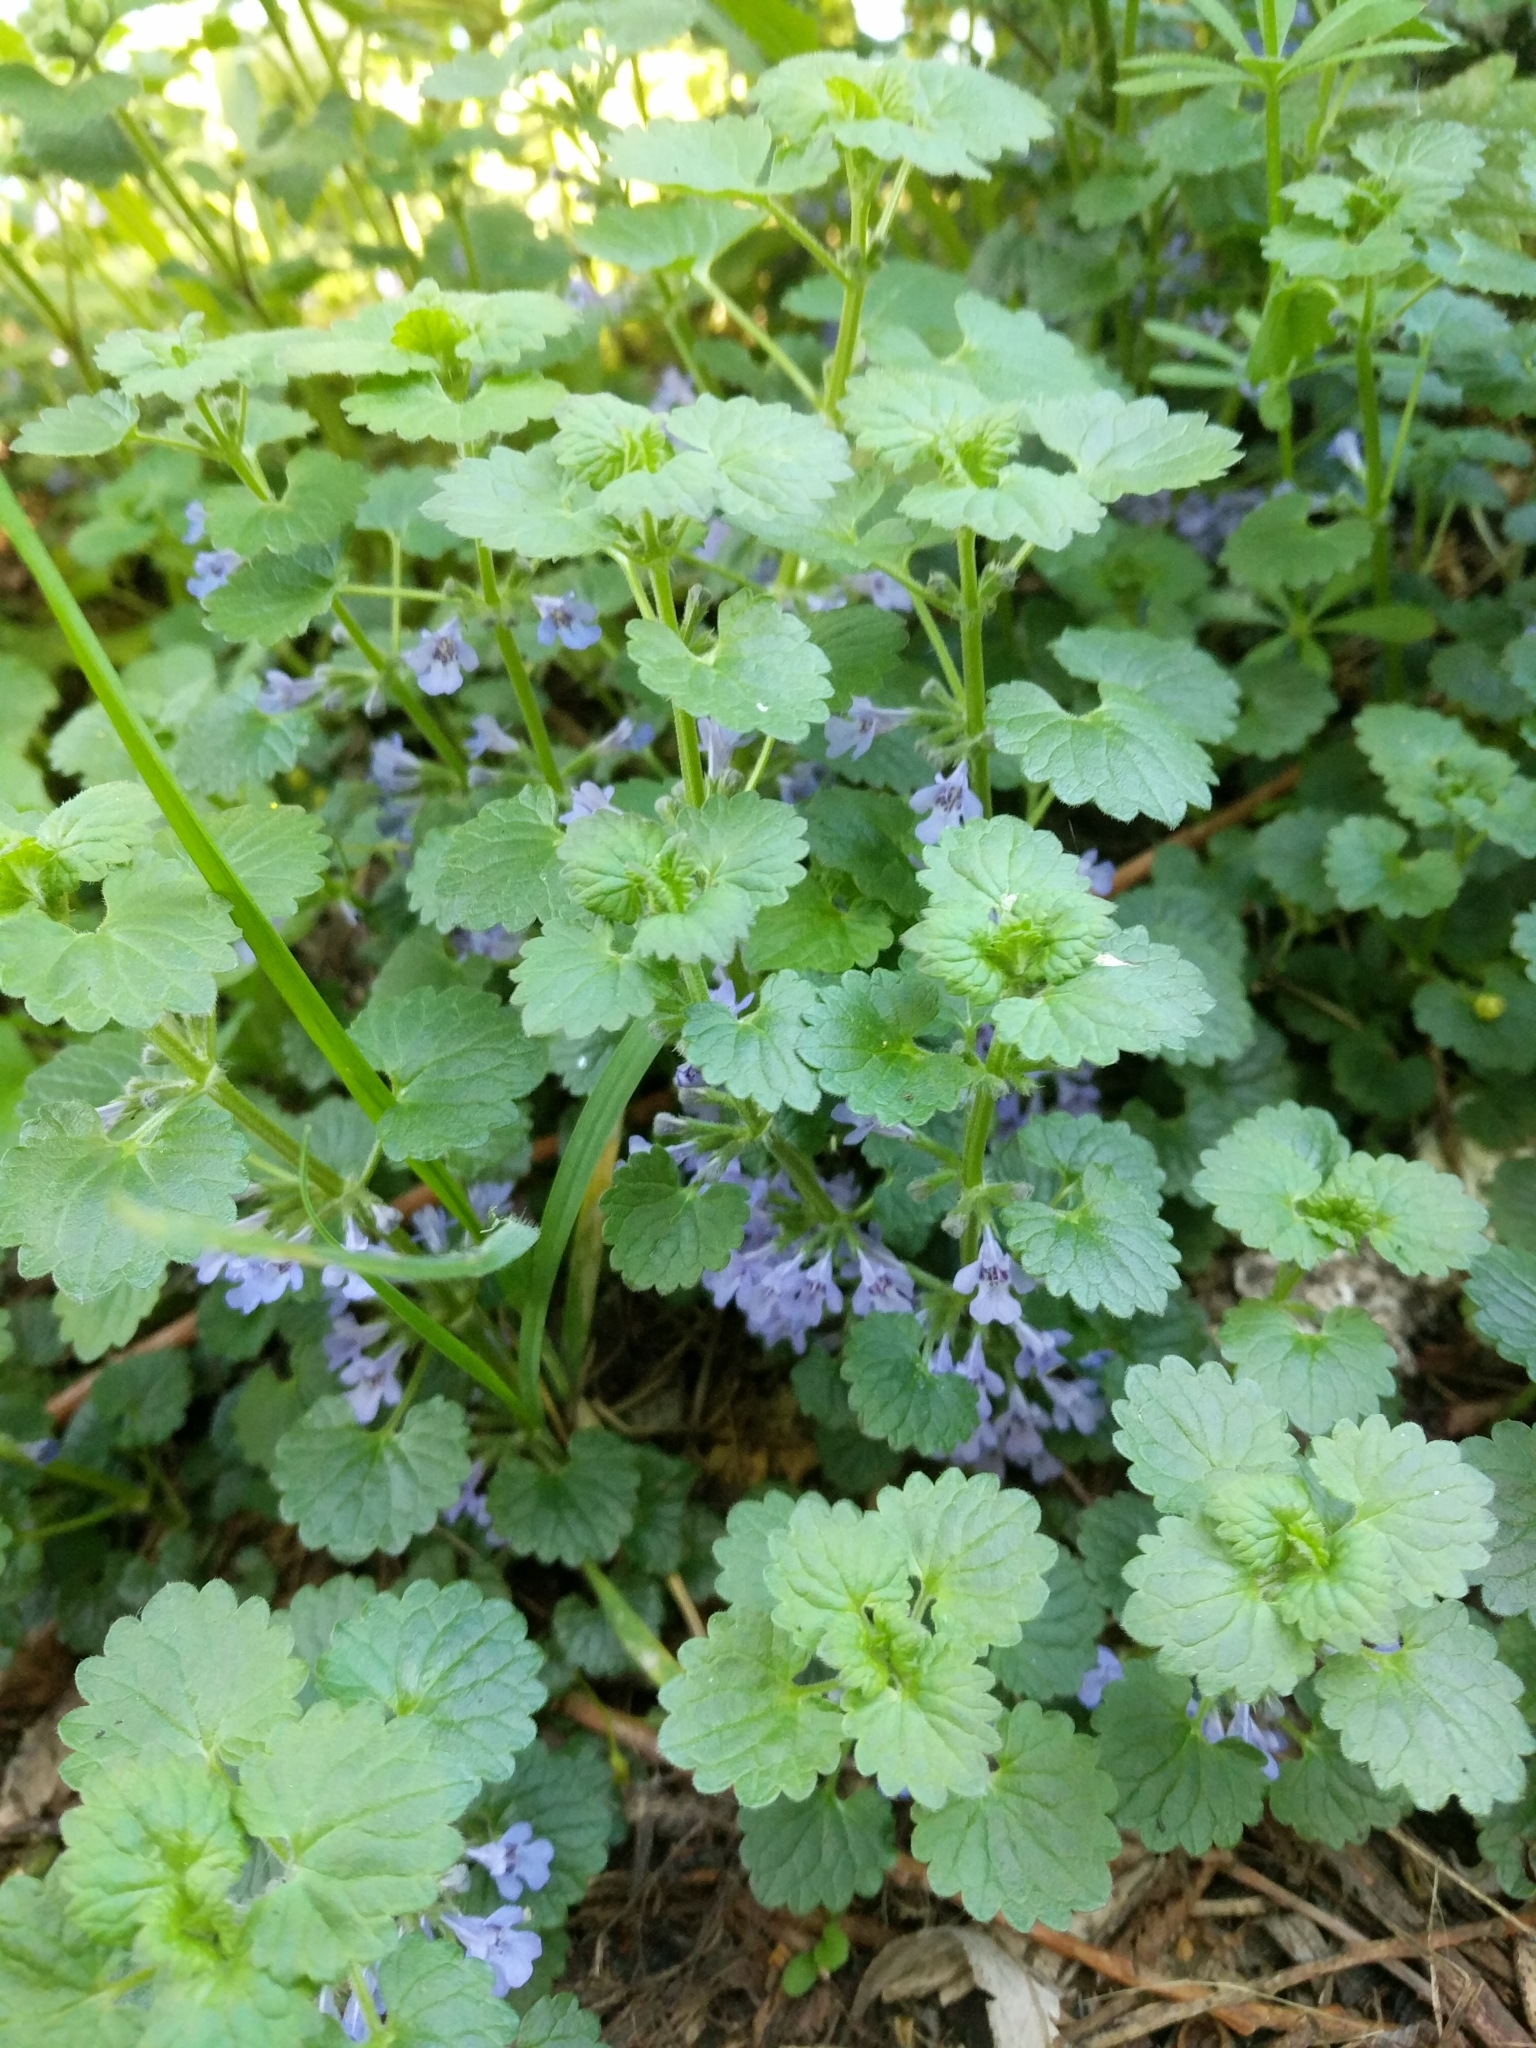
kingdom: Plantae
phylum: Tracheophyta
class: Magnoliopsida
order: Lamiales
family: Lamiaceae
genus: Glechoma
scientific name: Glechoma hederacea
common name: Ground ivy
